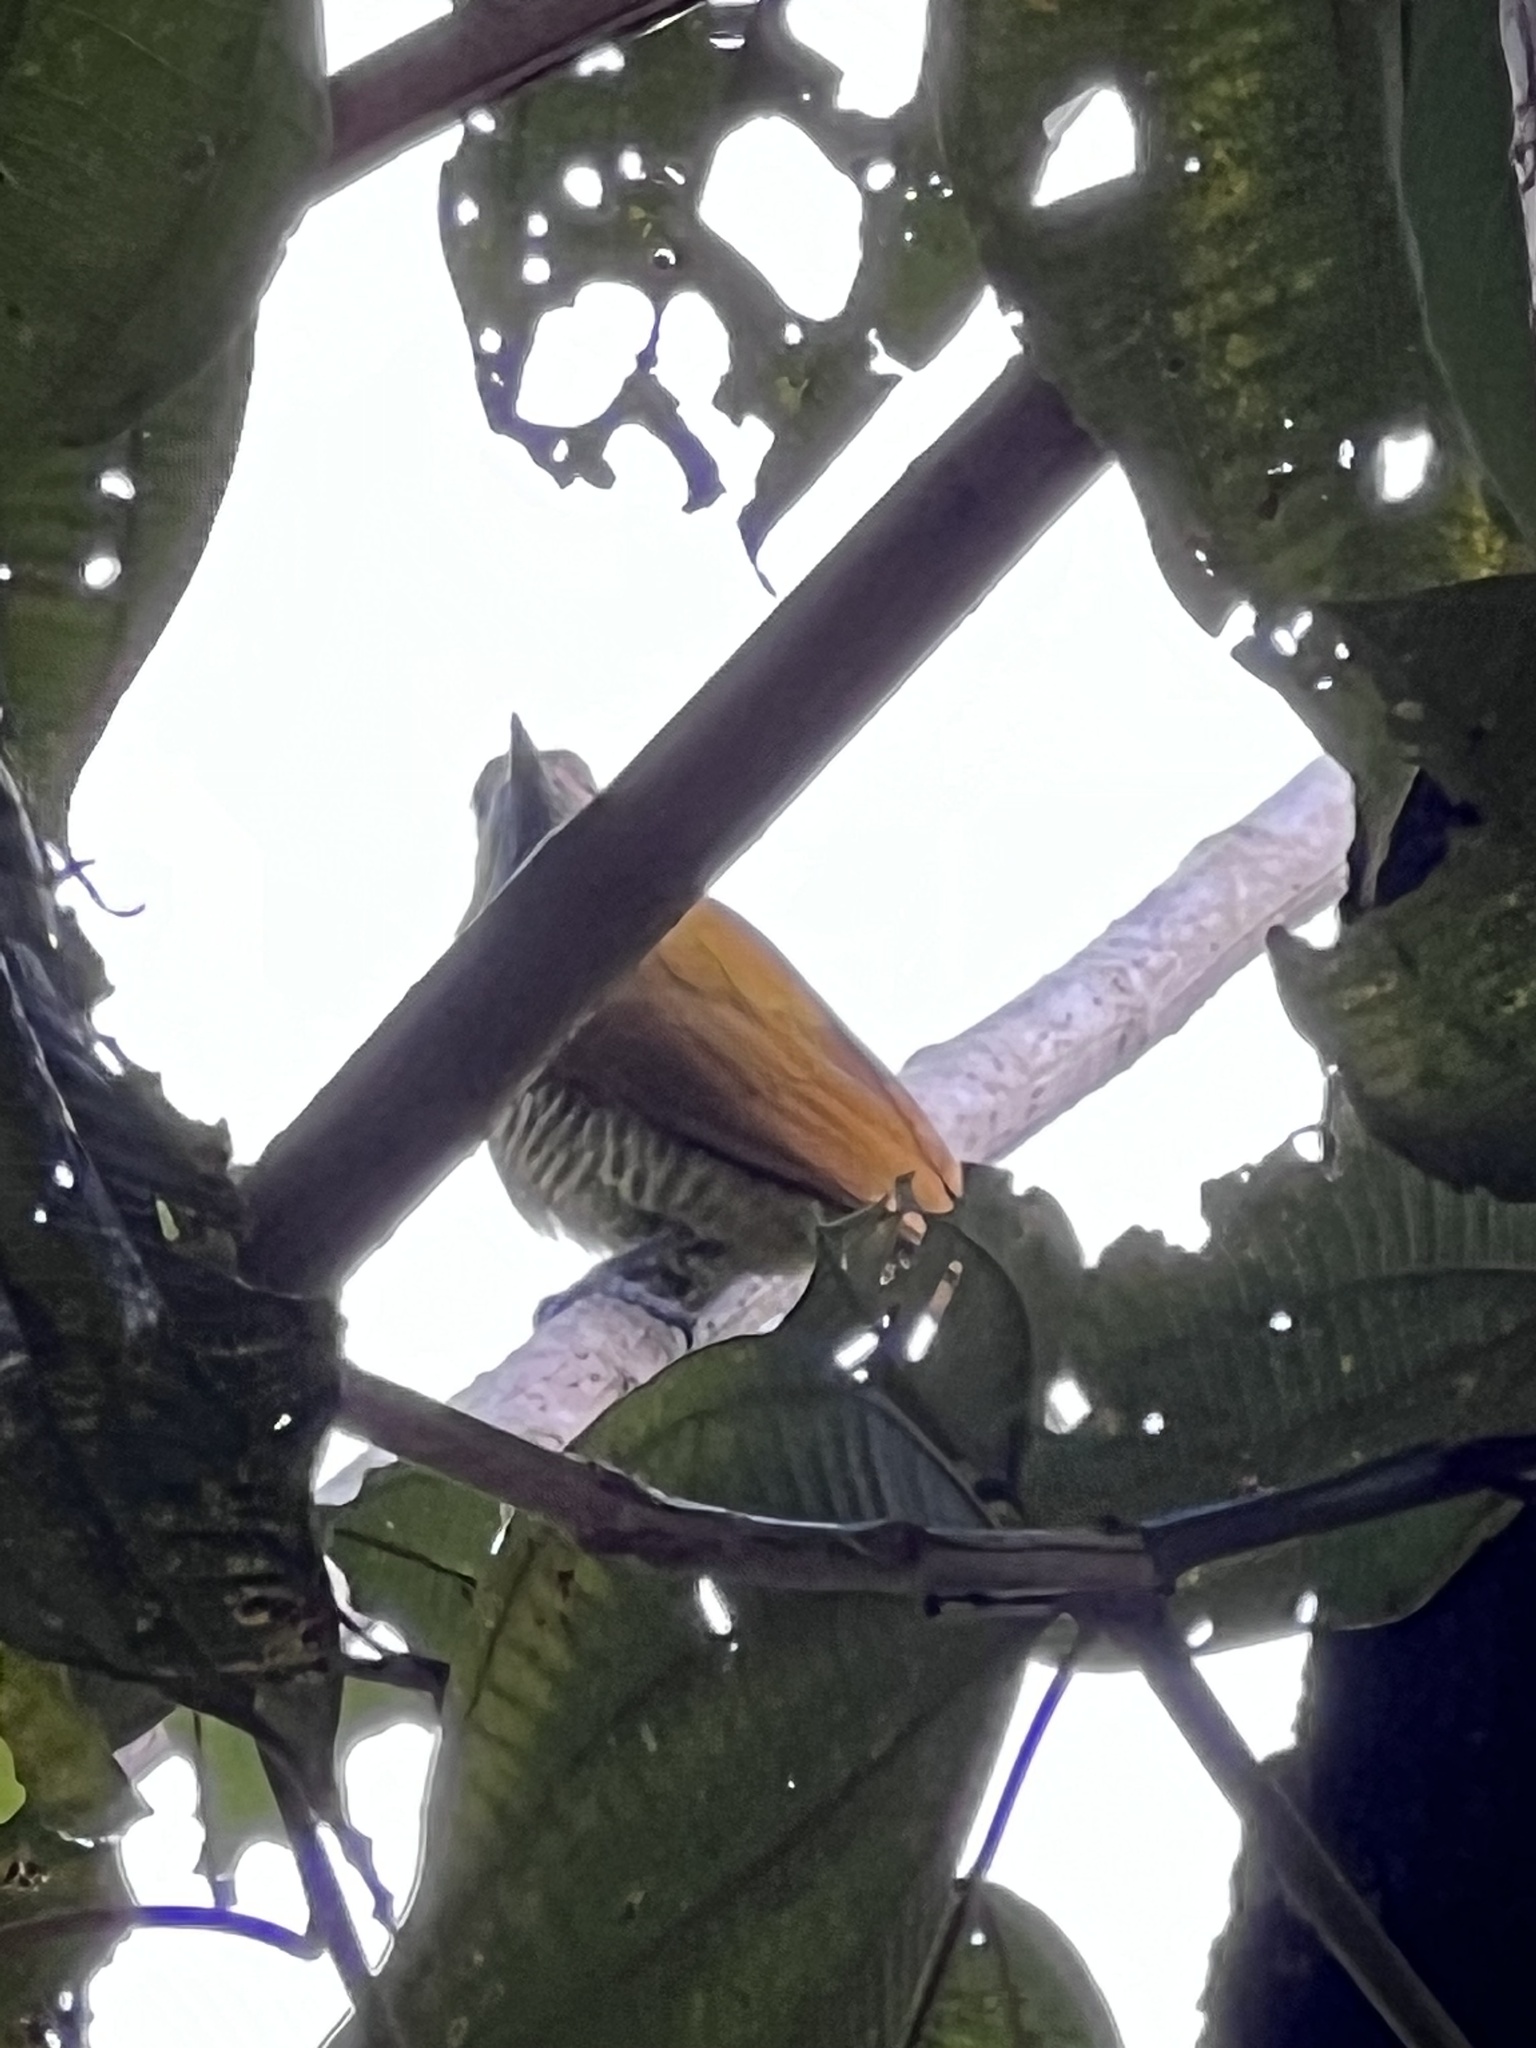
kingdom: Animalia
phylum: Chordata
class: Aves
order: Piciformes
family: Picidae
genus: Colaptes
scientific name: Colaptes rubiginosus
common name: Golden-olive woodpecker
